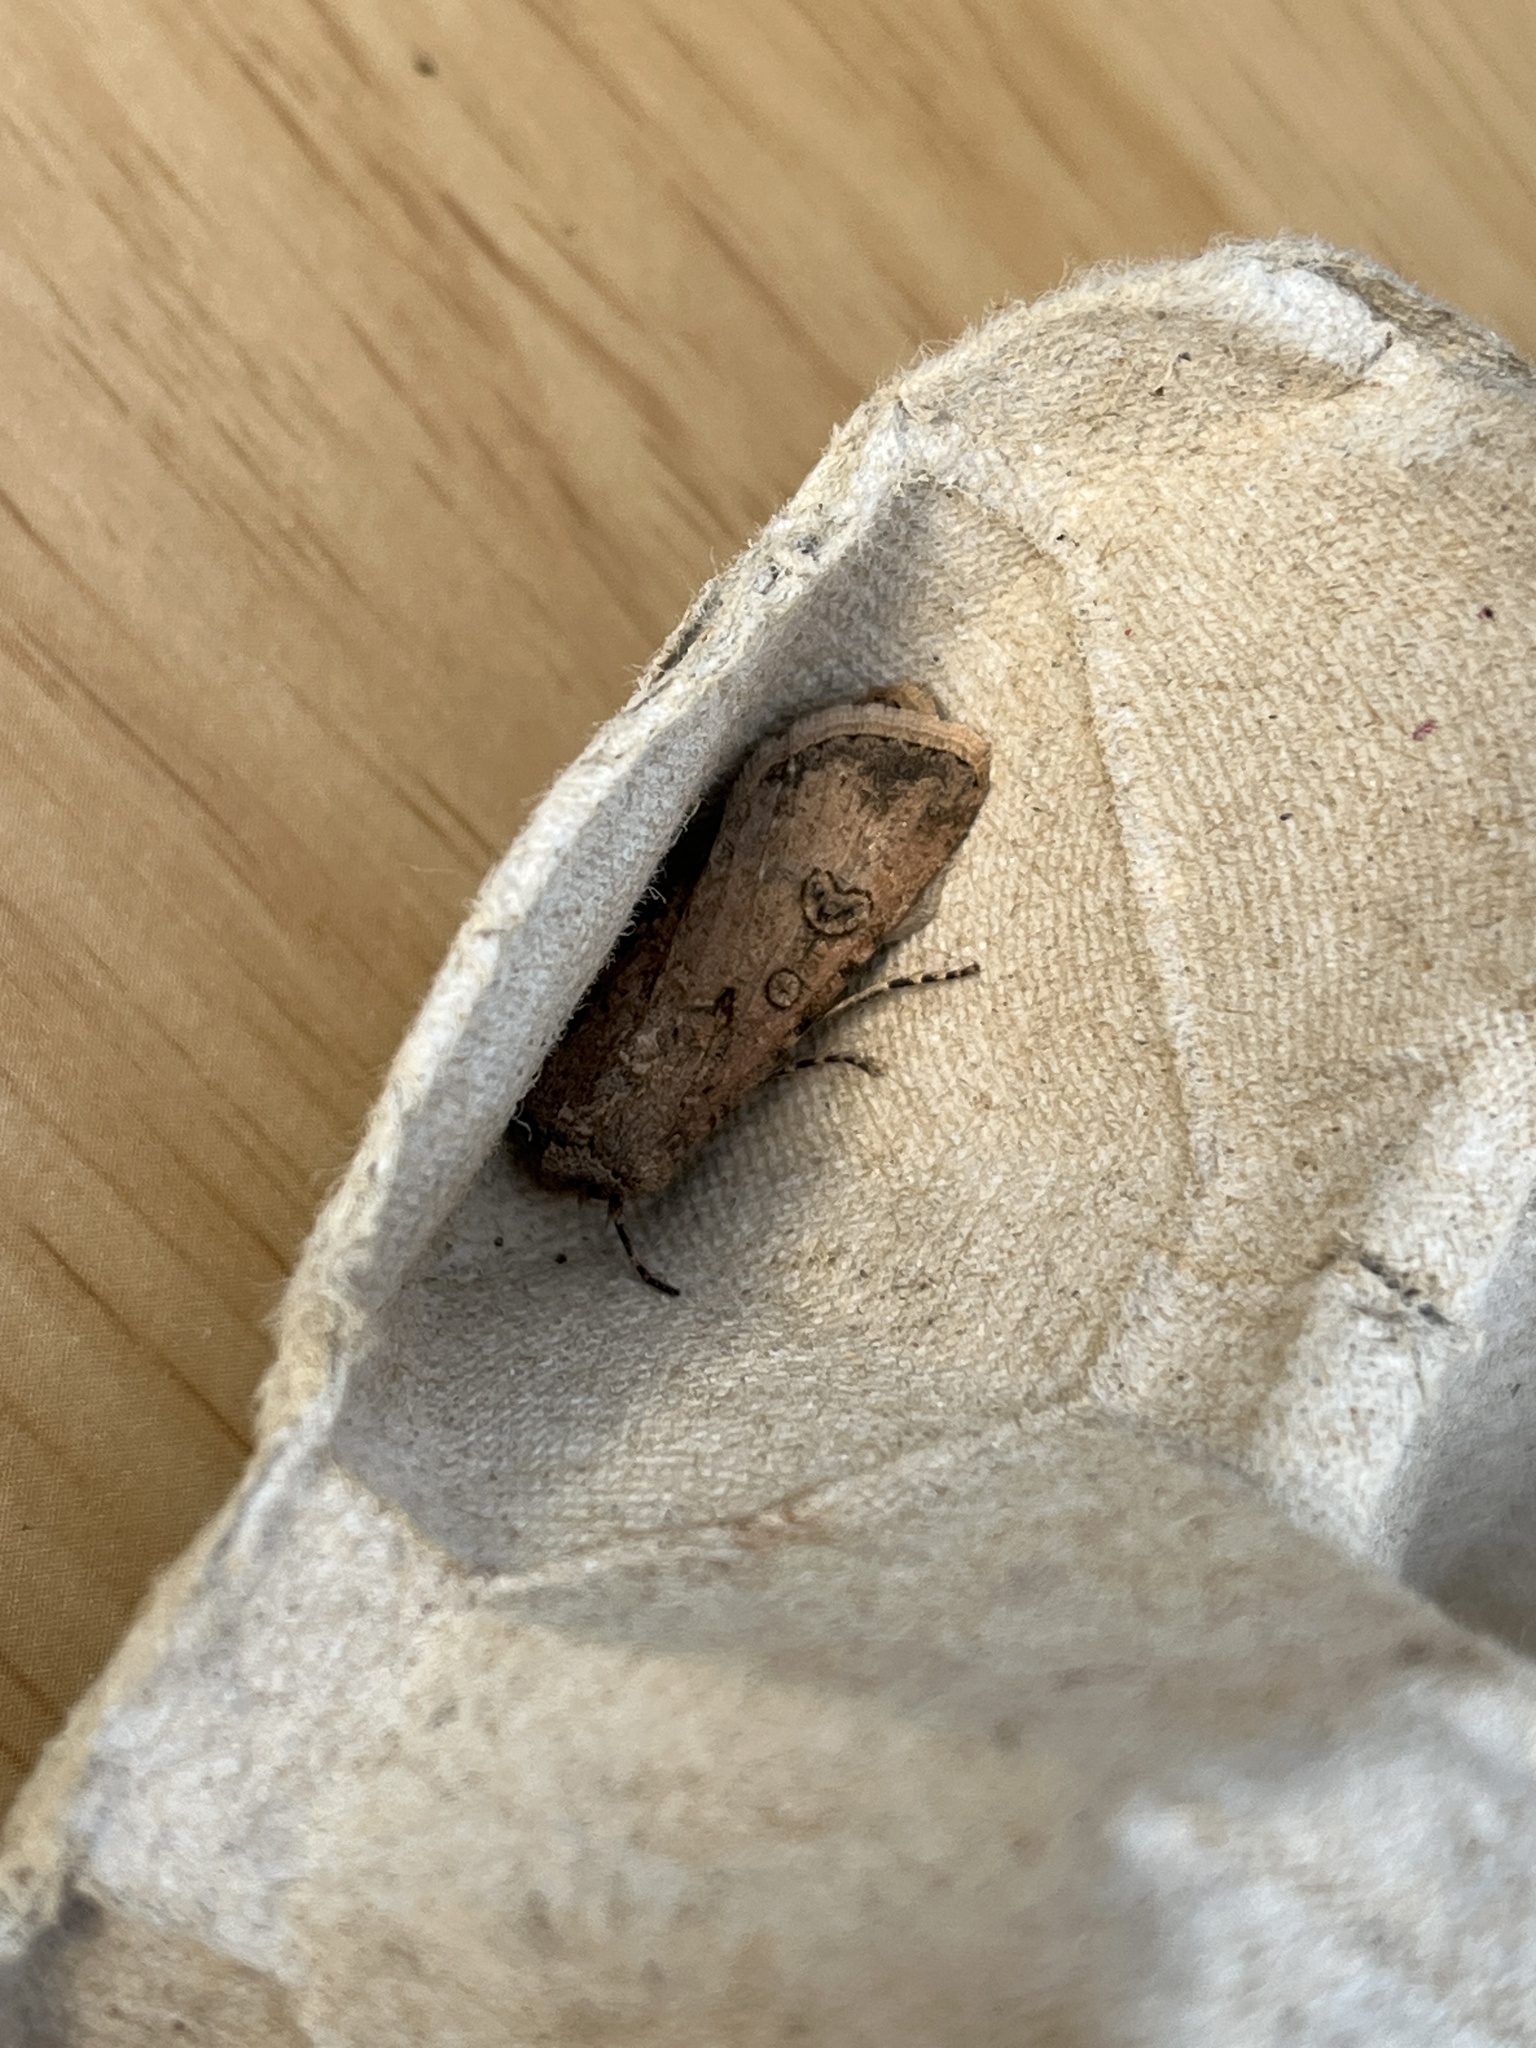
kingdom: Animalia
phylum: Arthropoda
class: Insecta
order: Lepidoptera
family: Noctuidae
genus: Agrotis
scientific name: Agrotis segetum
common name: Turnip moth
